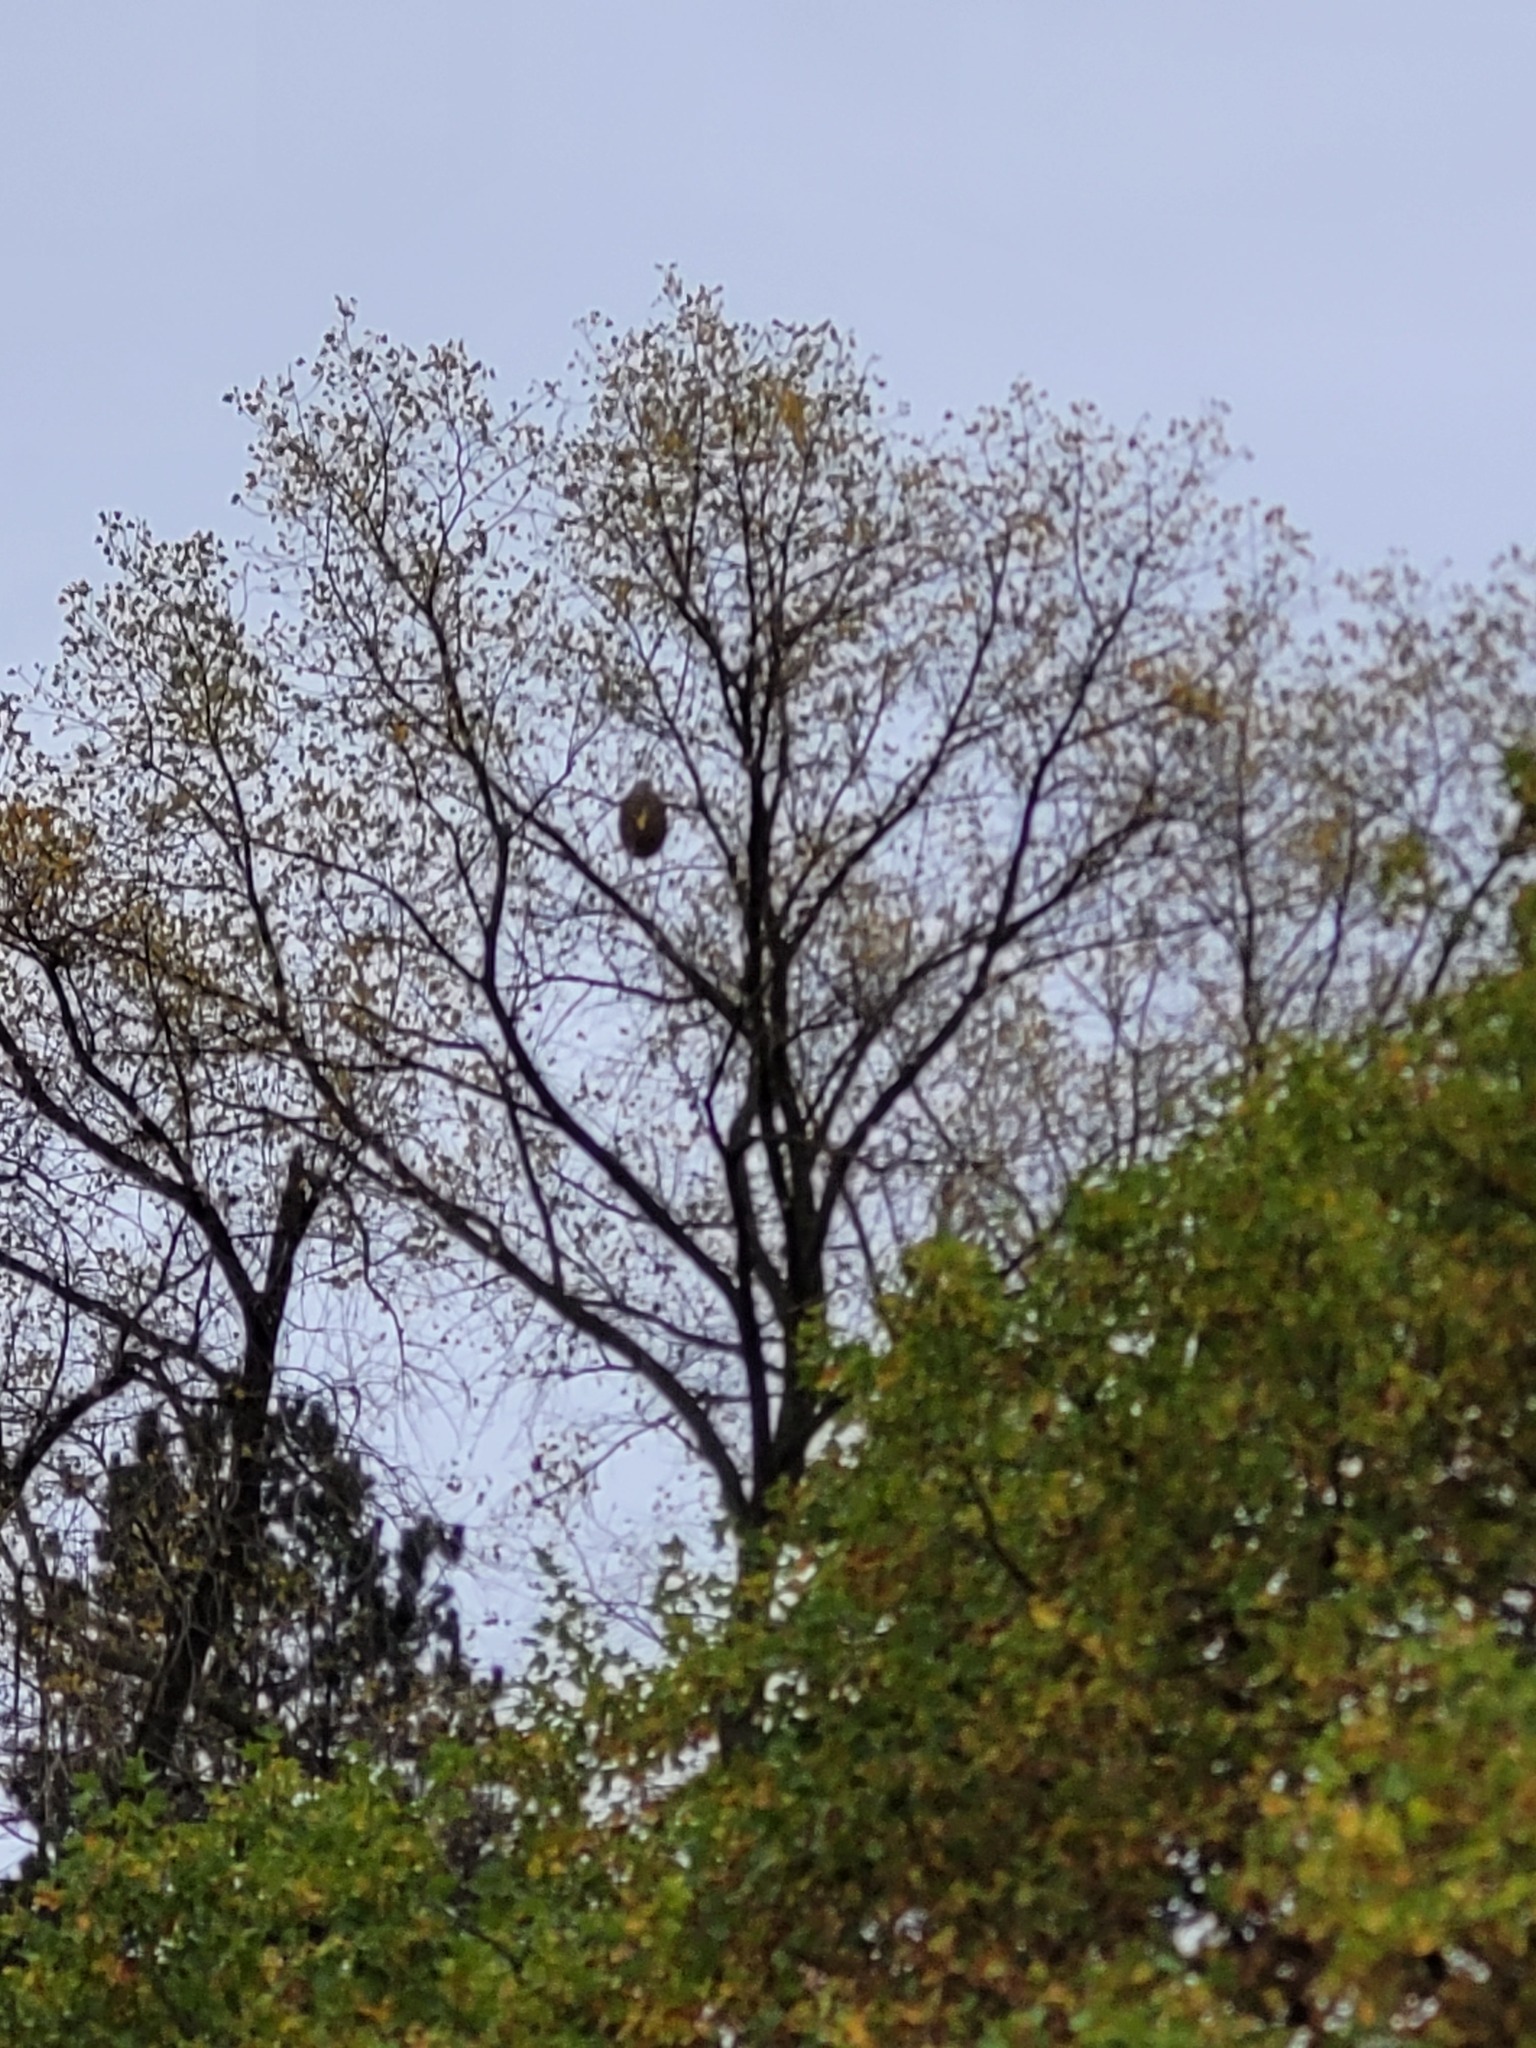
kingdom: Animalia
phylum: Arthropoda
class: Insecta
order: Hymenoptera
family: Vespidae
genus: Vespa
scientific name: Vespa velutina
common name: Asian hornet
